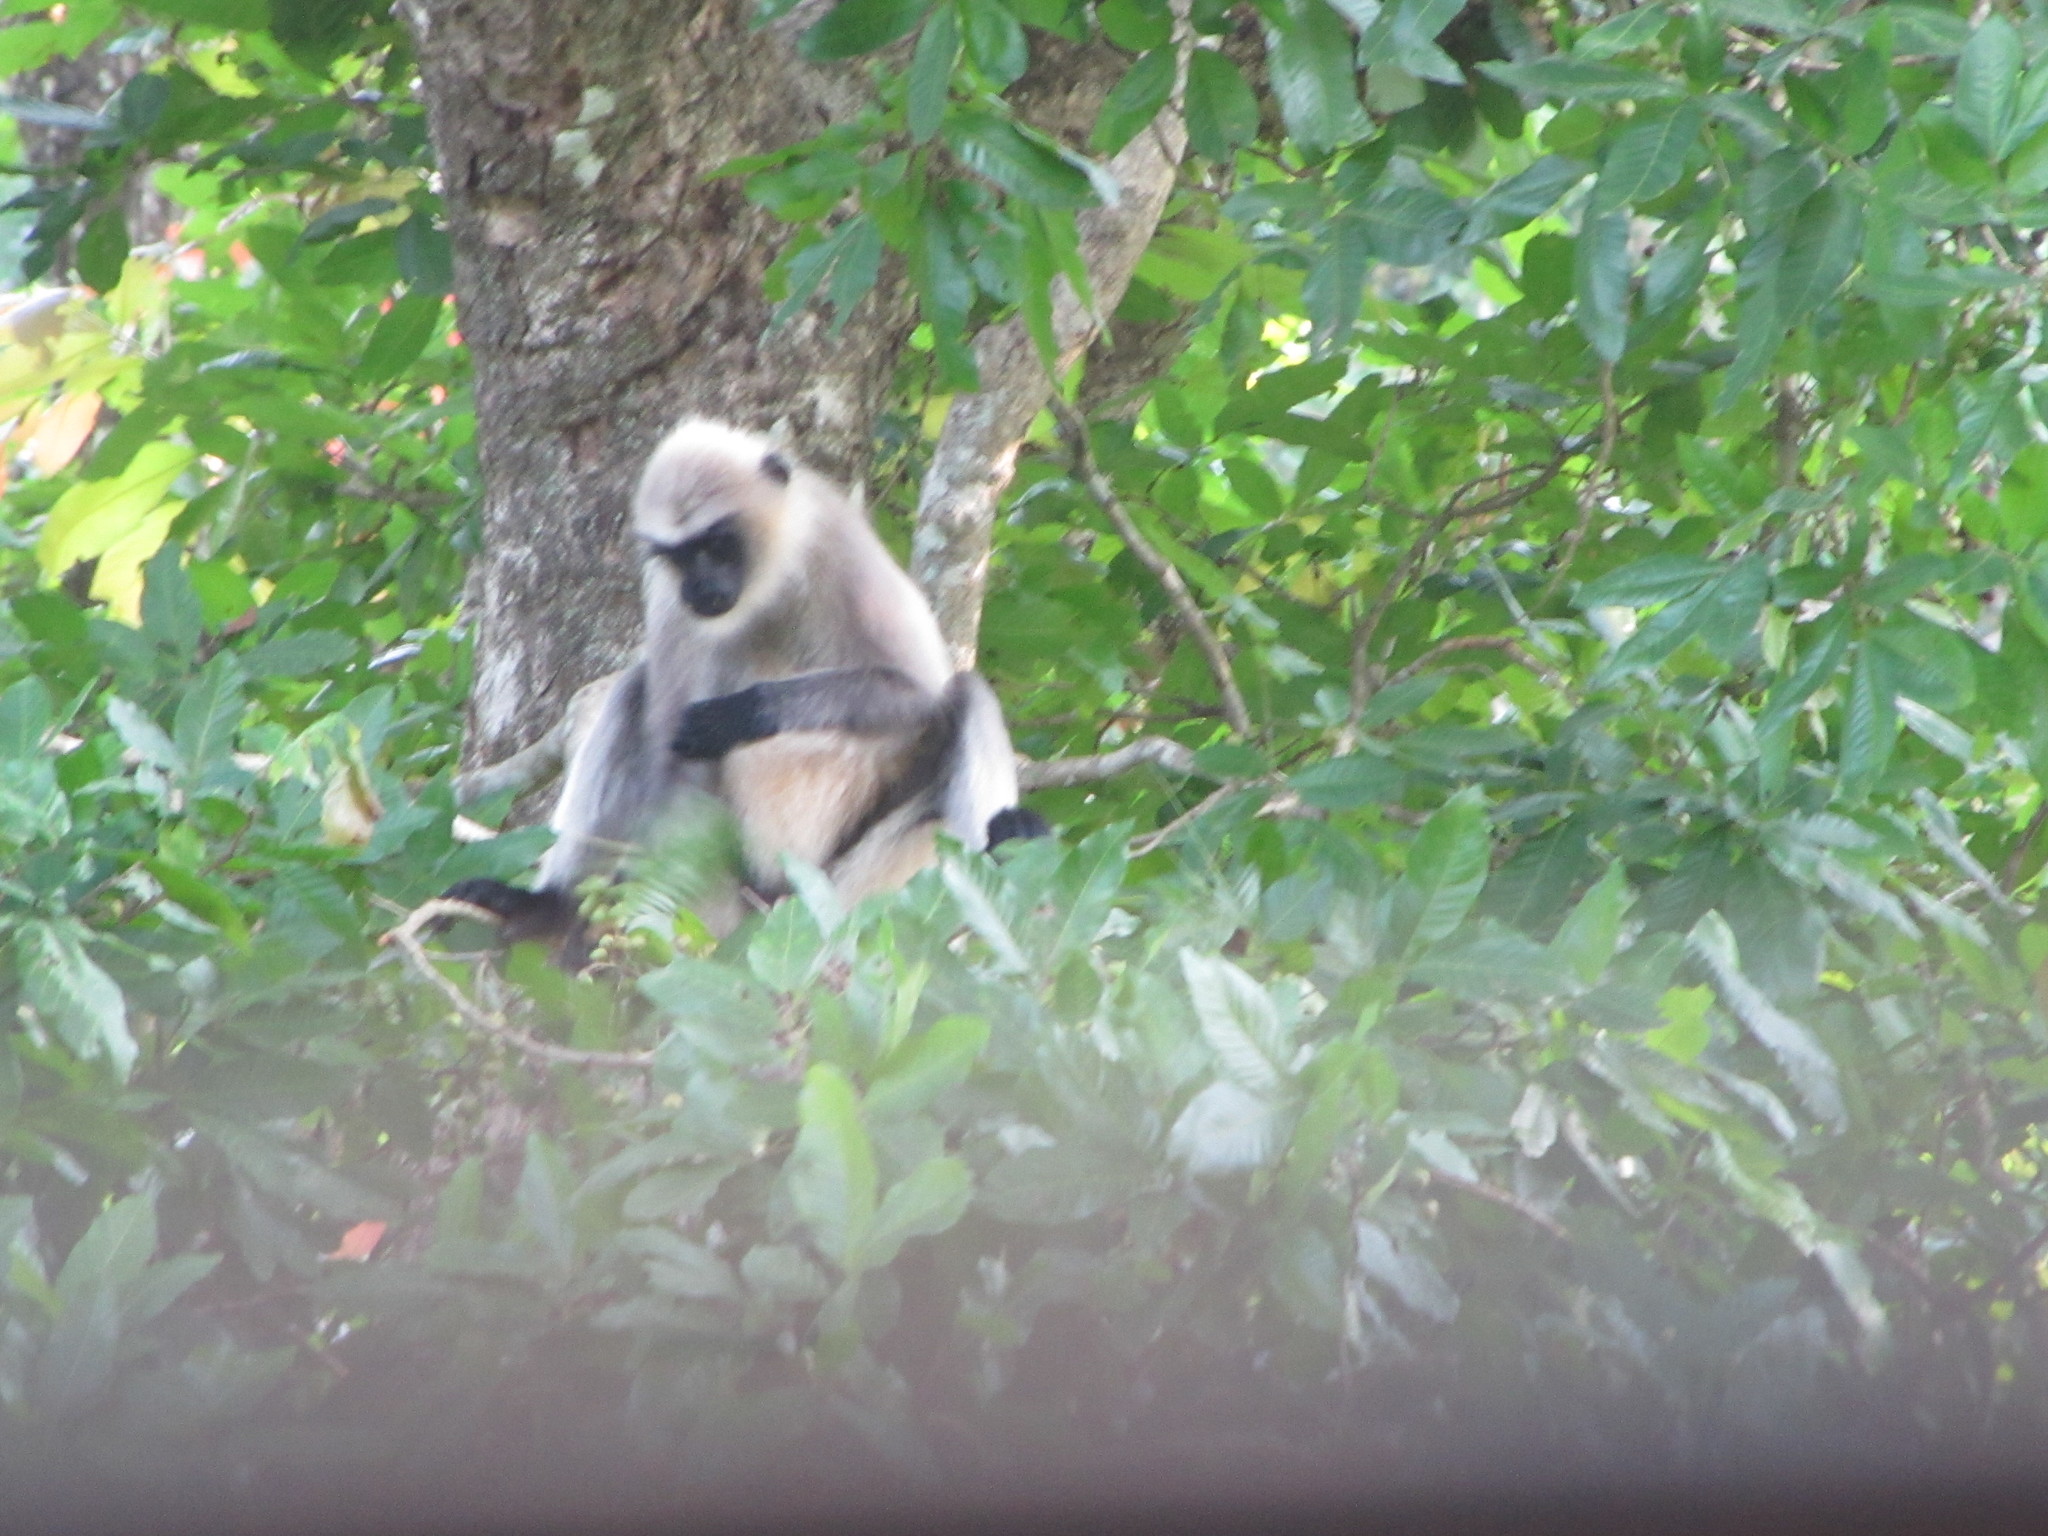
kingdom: Animalia
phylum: Chordata
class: Mammalia
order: Primates
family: Cercopithecidae
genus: Semnopithecus
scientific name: Semnopithecus hypoleucos
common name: Black-footed gray langur
